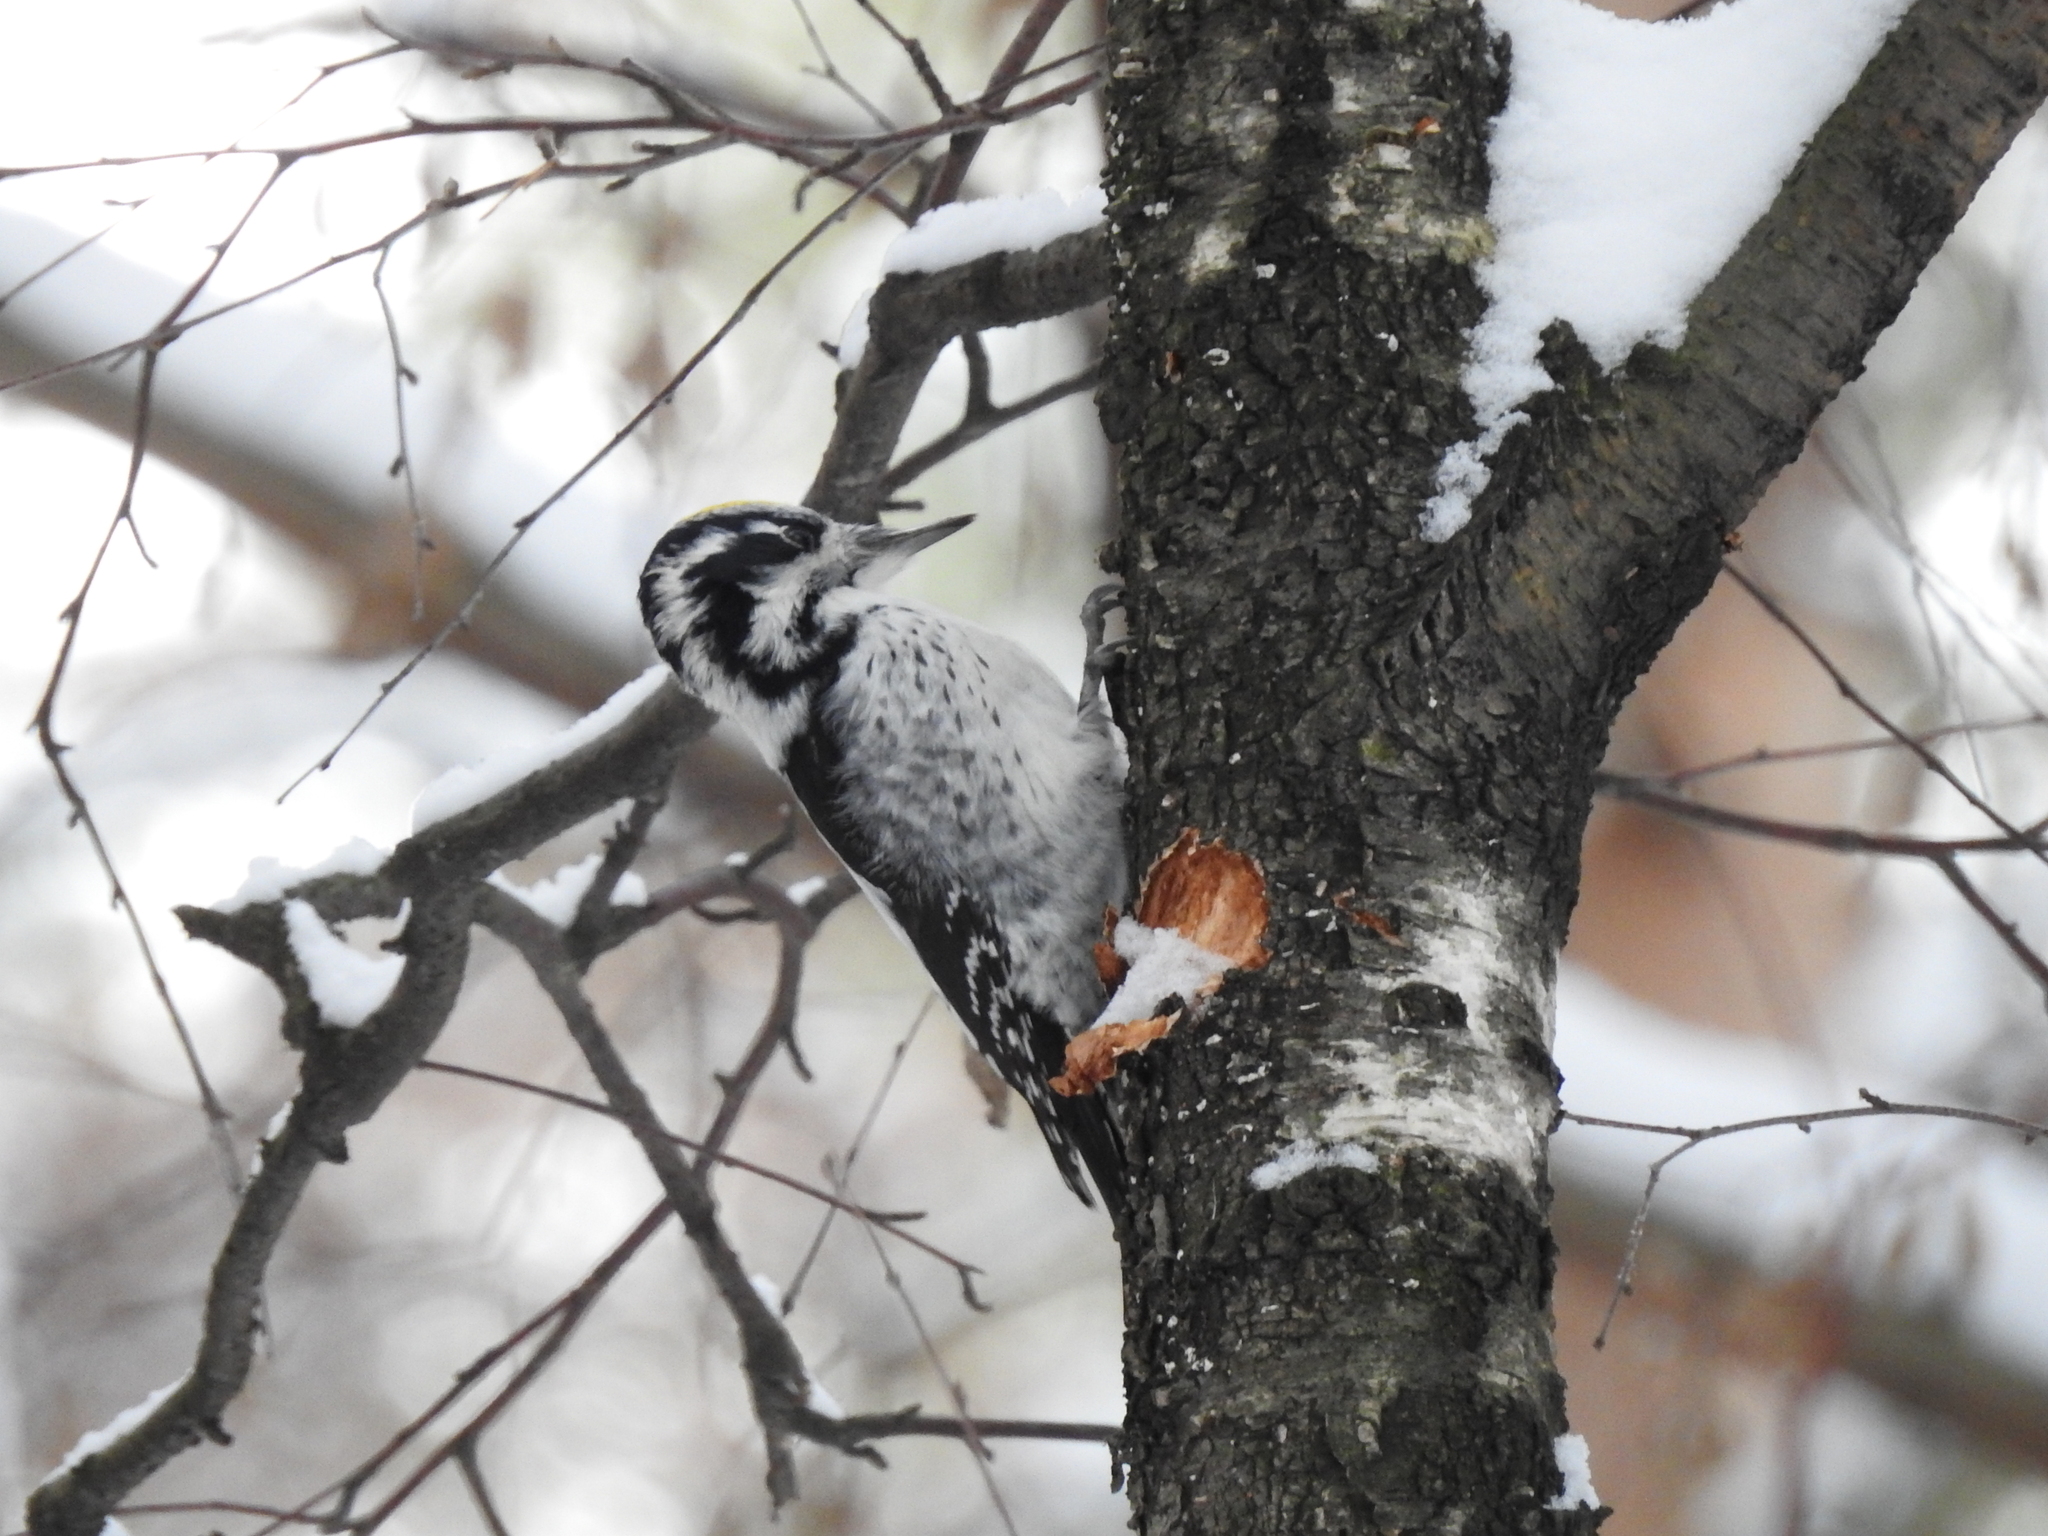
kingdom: Animalia
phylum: Chordata
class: Aves
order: Piciformes
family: Picidae
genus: Picoides
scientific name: Picoides tridactylus
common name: Eurasian three-toed woodpecker
